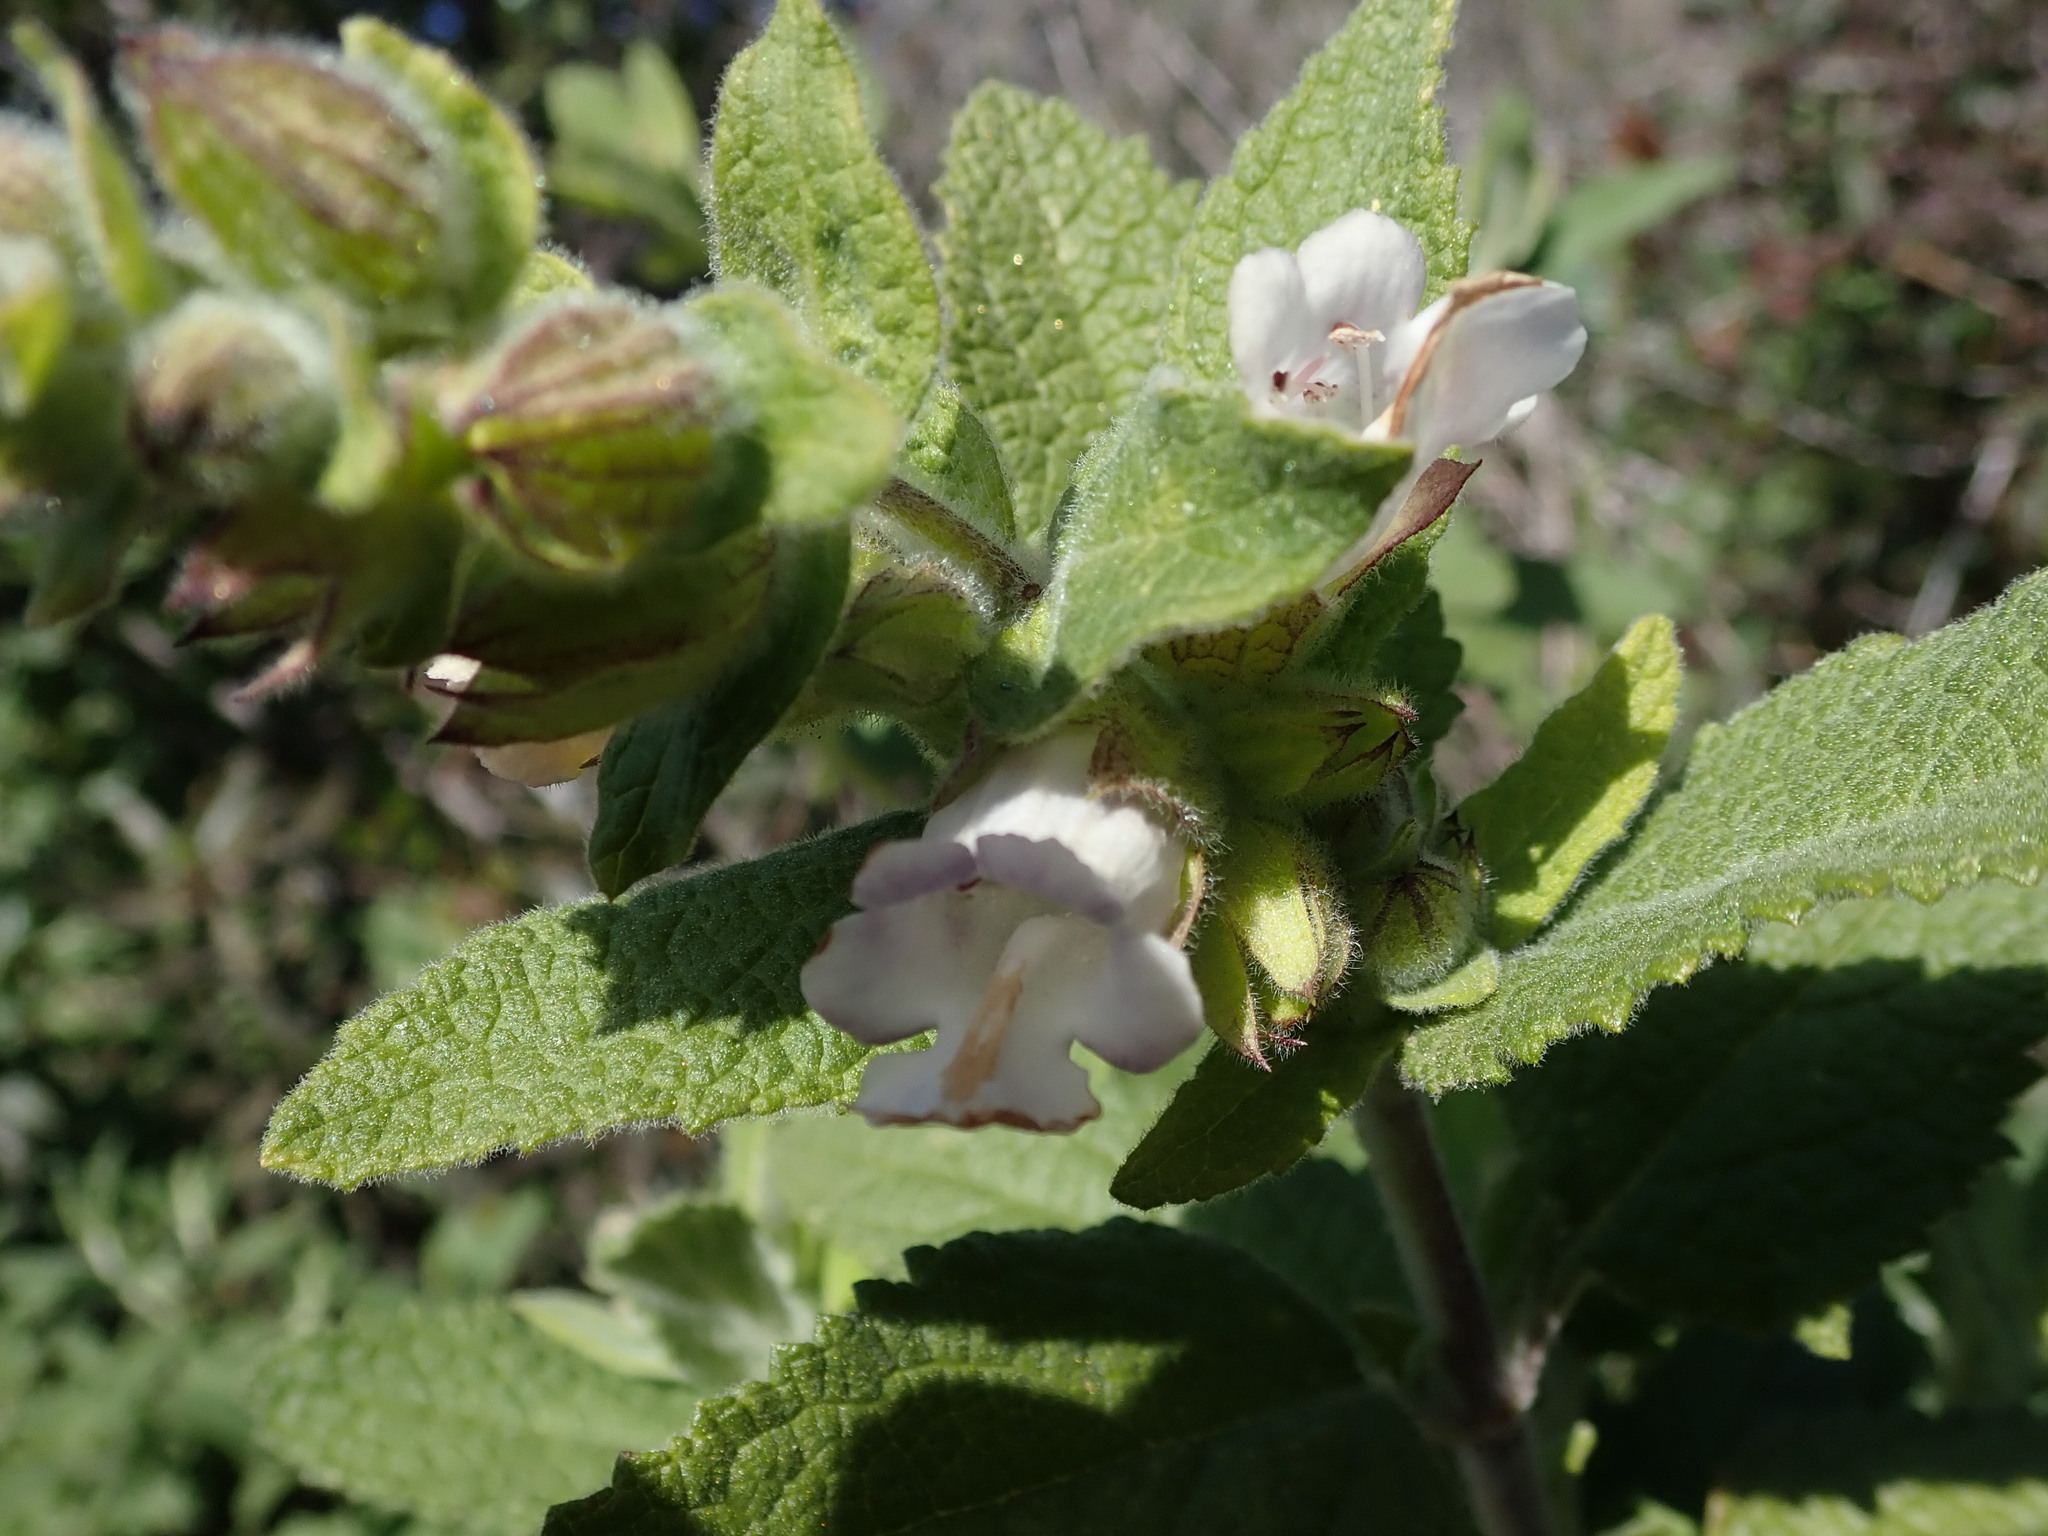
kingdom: Plantae
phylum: Tracheophyta
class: Magnoliopsida
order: Lamiales
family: Lamiaceae
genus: Lepechinia
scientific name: Lepechinia calycina
